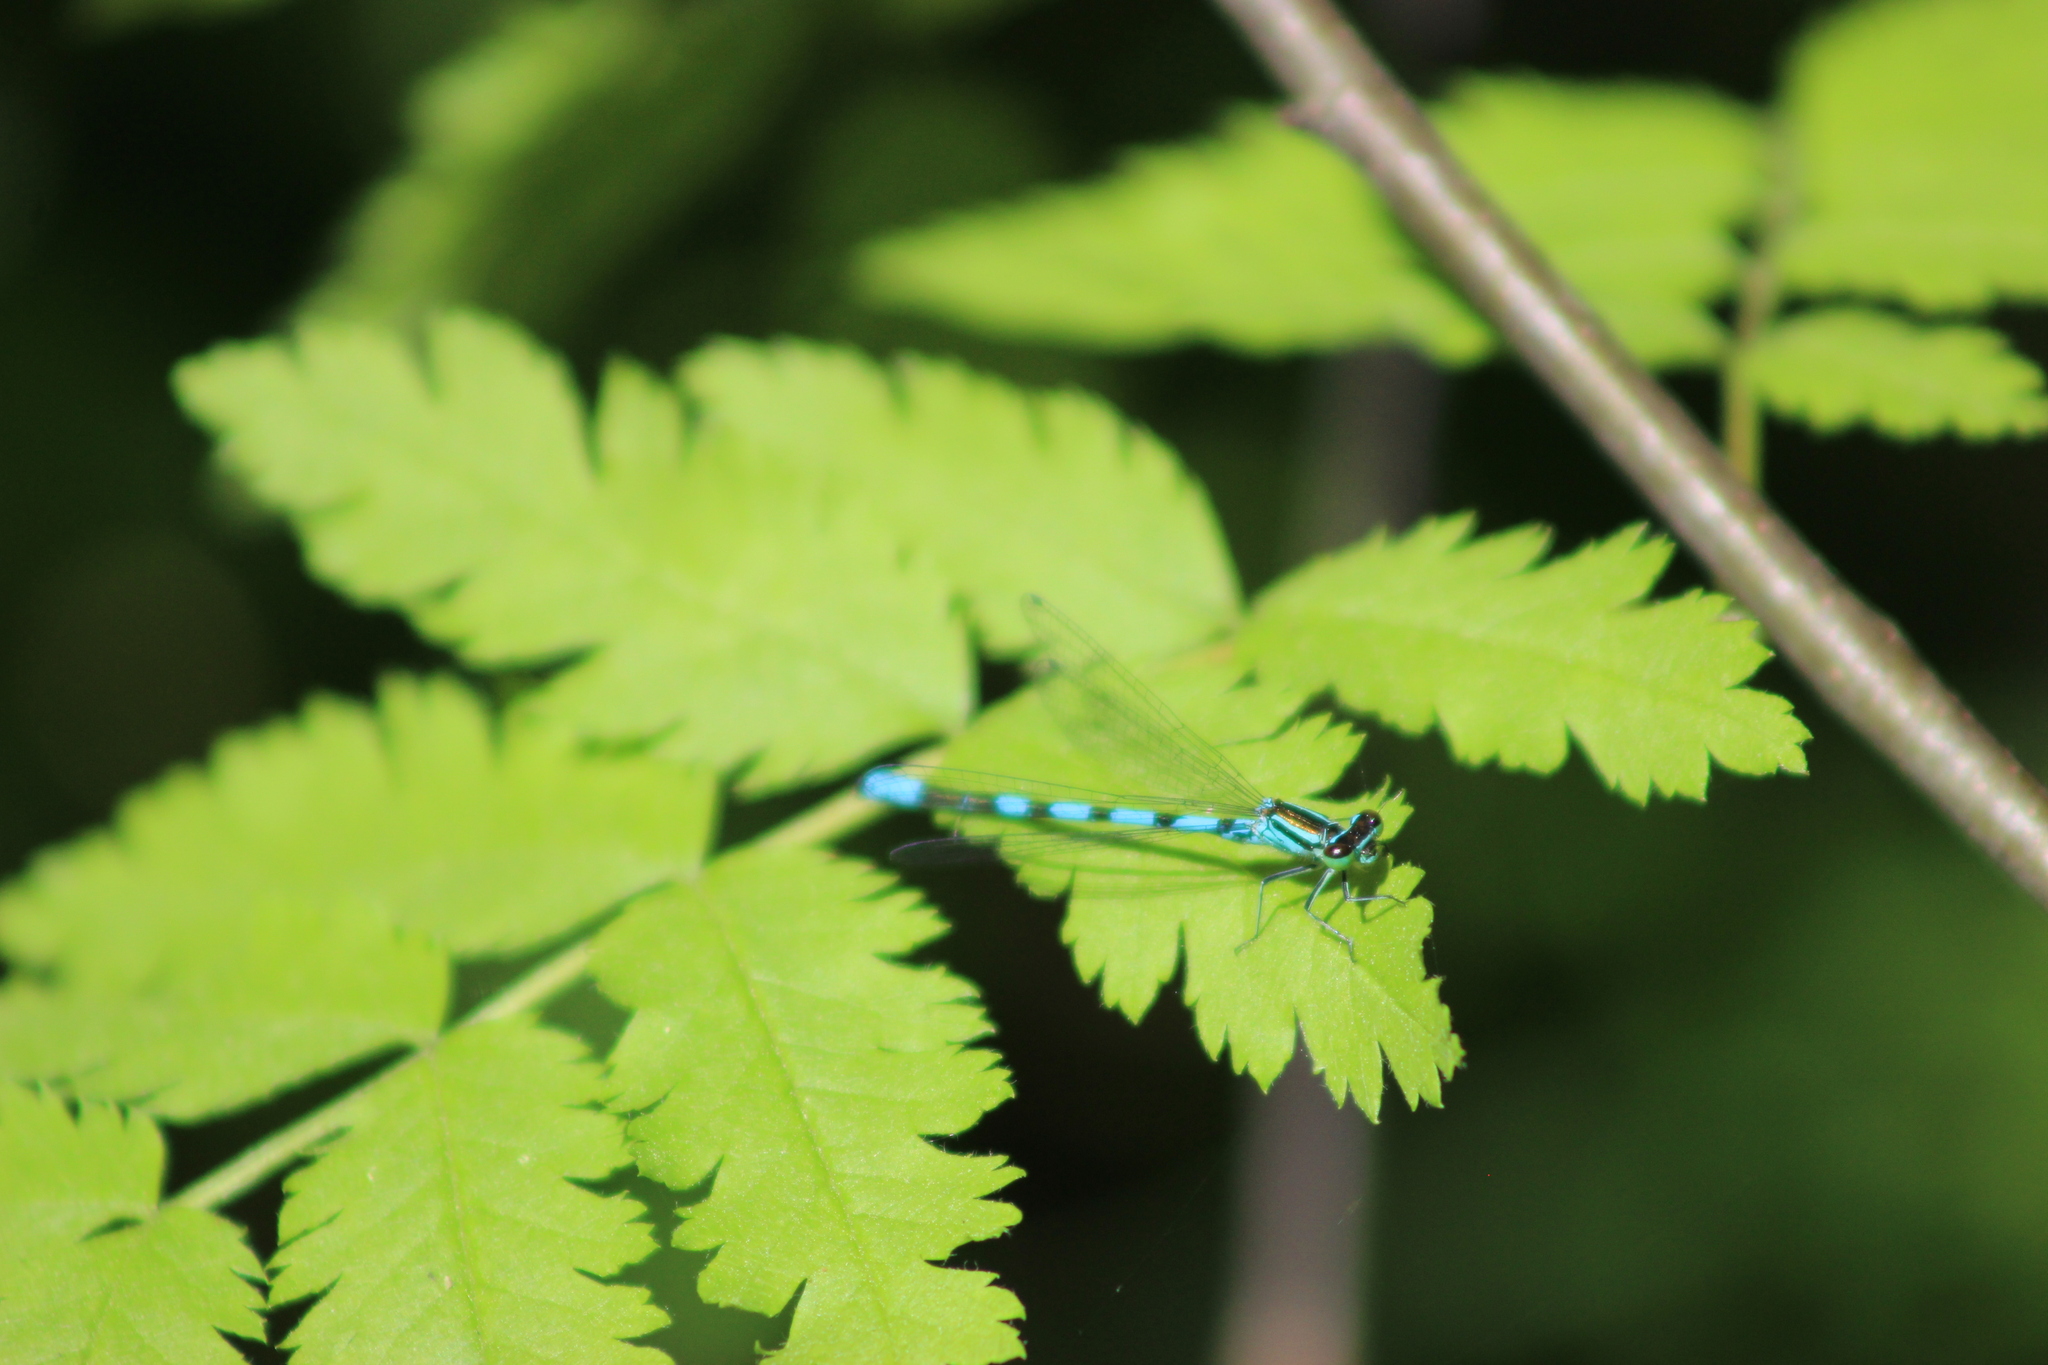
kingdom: Animalia
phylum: Arthropoda
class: Insecta
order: Odonata
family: Coenagrionidae
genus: Coenagrion
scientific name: Coenagrion hastulatum
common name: Spearhead bluet
